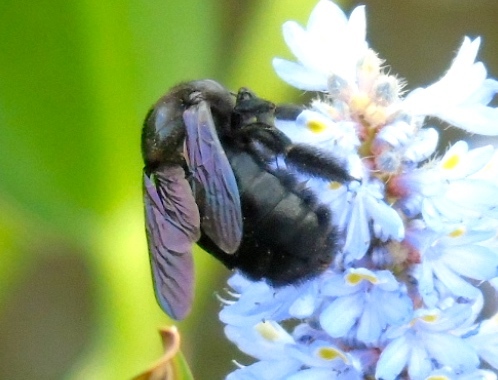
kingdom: Animalia
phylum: Arthropoda
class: Insecta
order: Hymenoptera
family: Xylocopidae
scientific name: Xylocopidae
